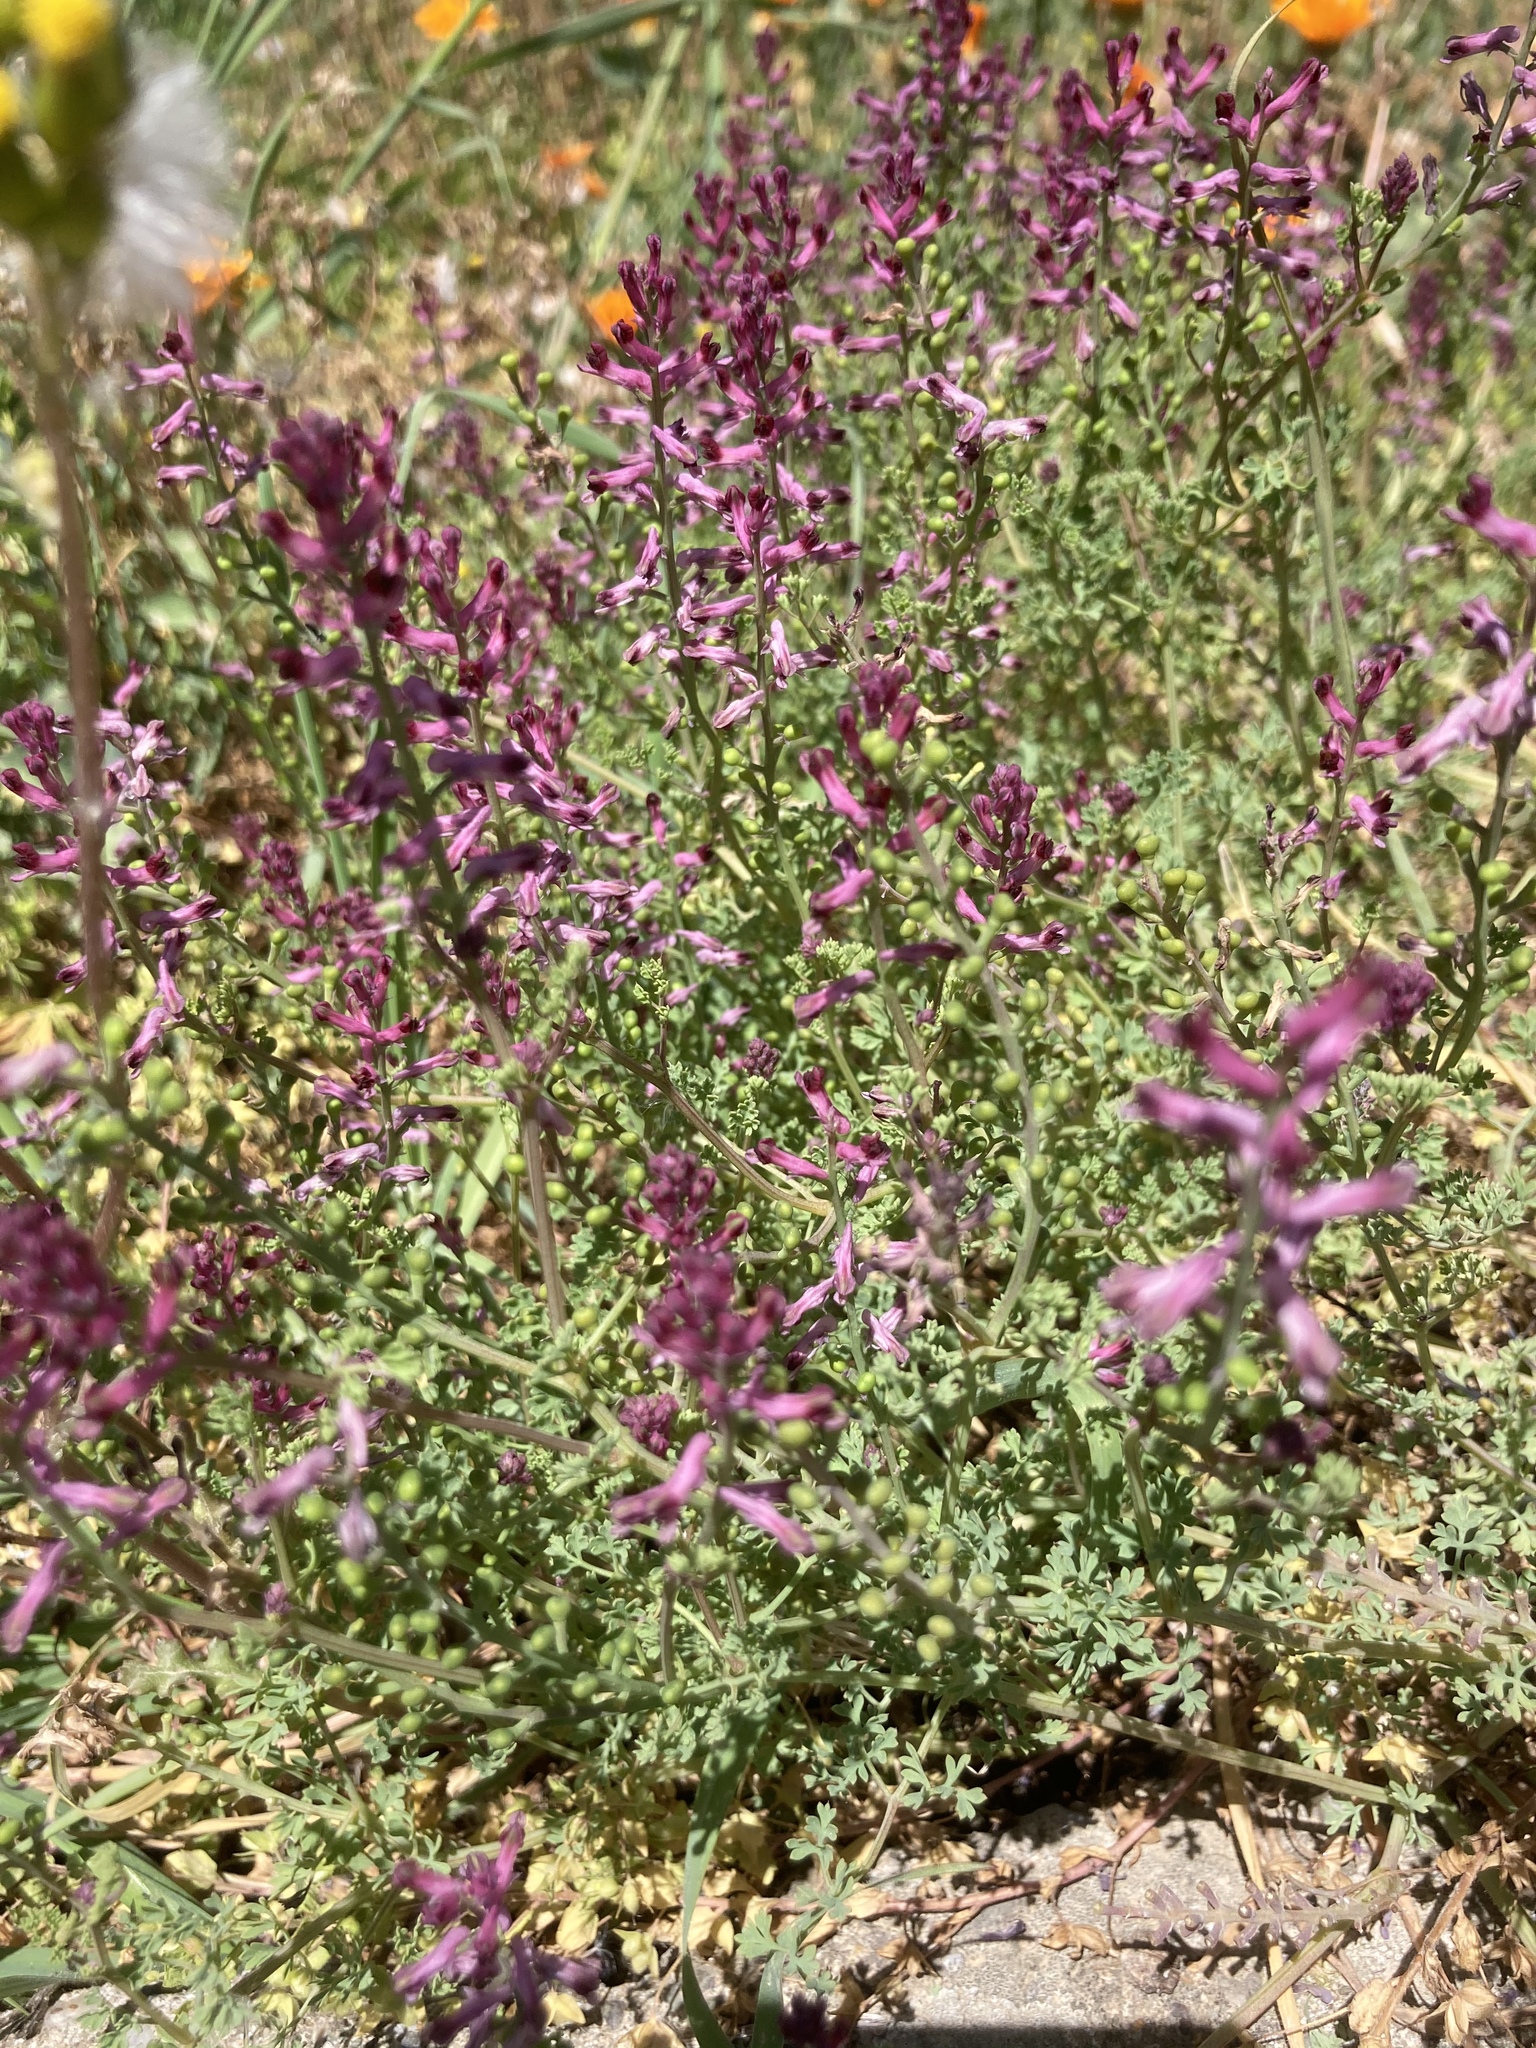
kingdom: Plantae
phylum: Tracheophyta
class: Magnoliopsida
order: Ranunculales
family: Papaveraceae
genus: Fumaria
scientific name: Fumaria officinalis
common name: Common fumitory
